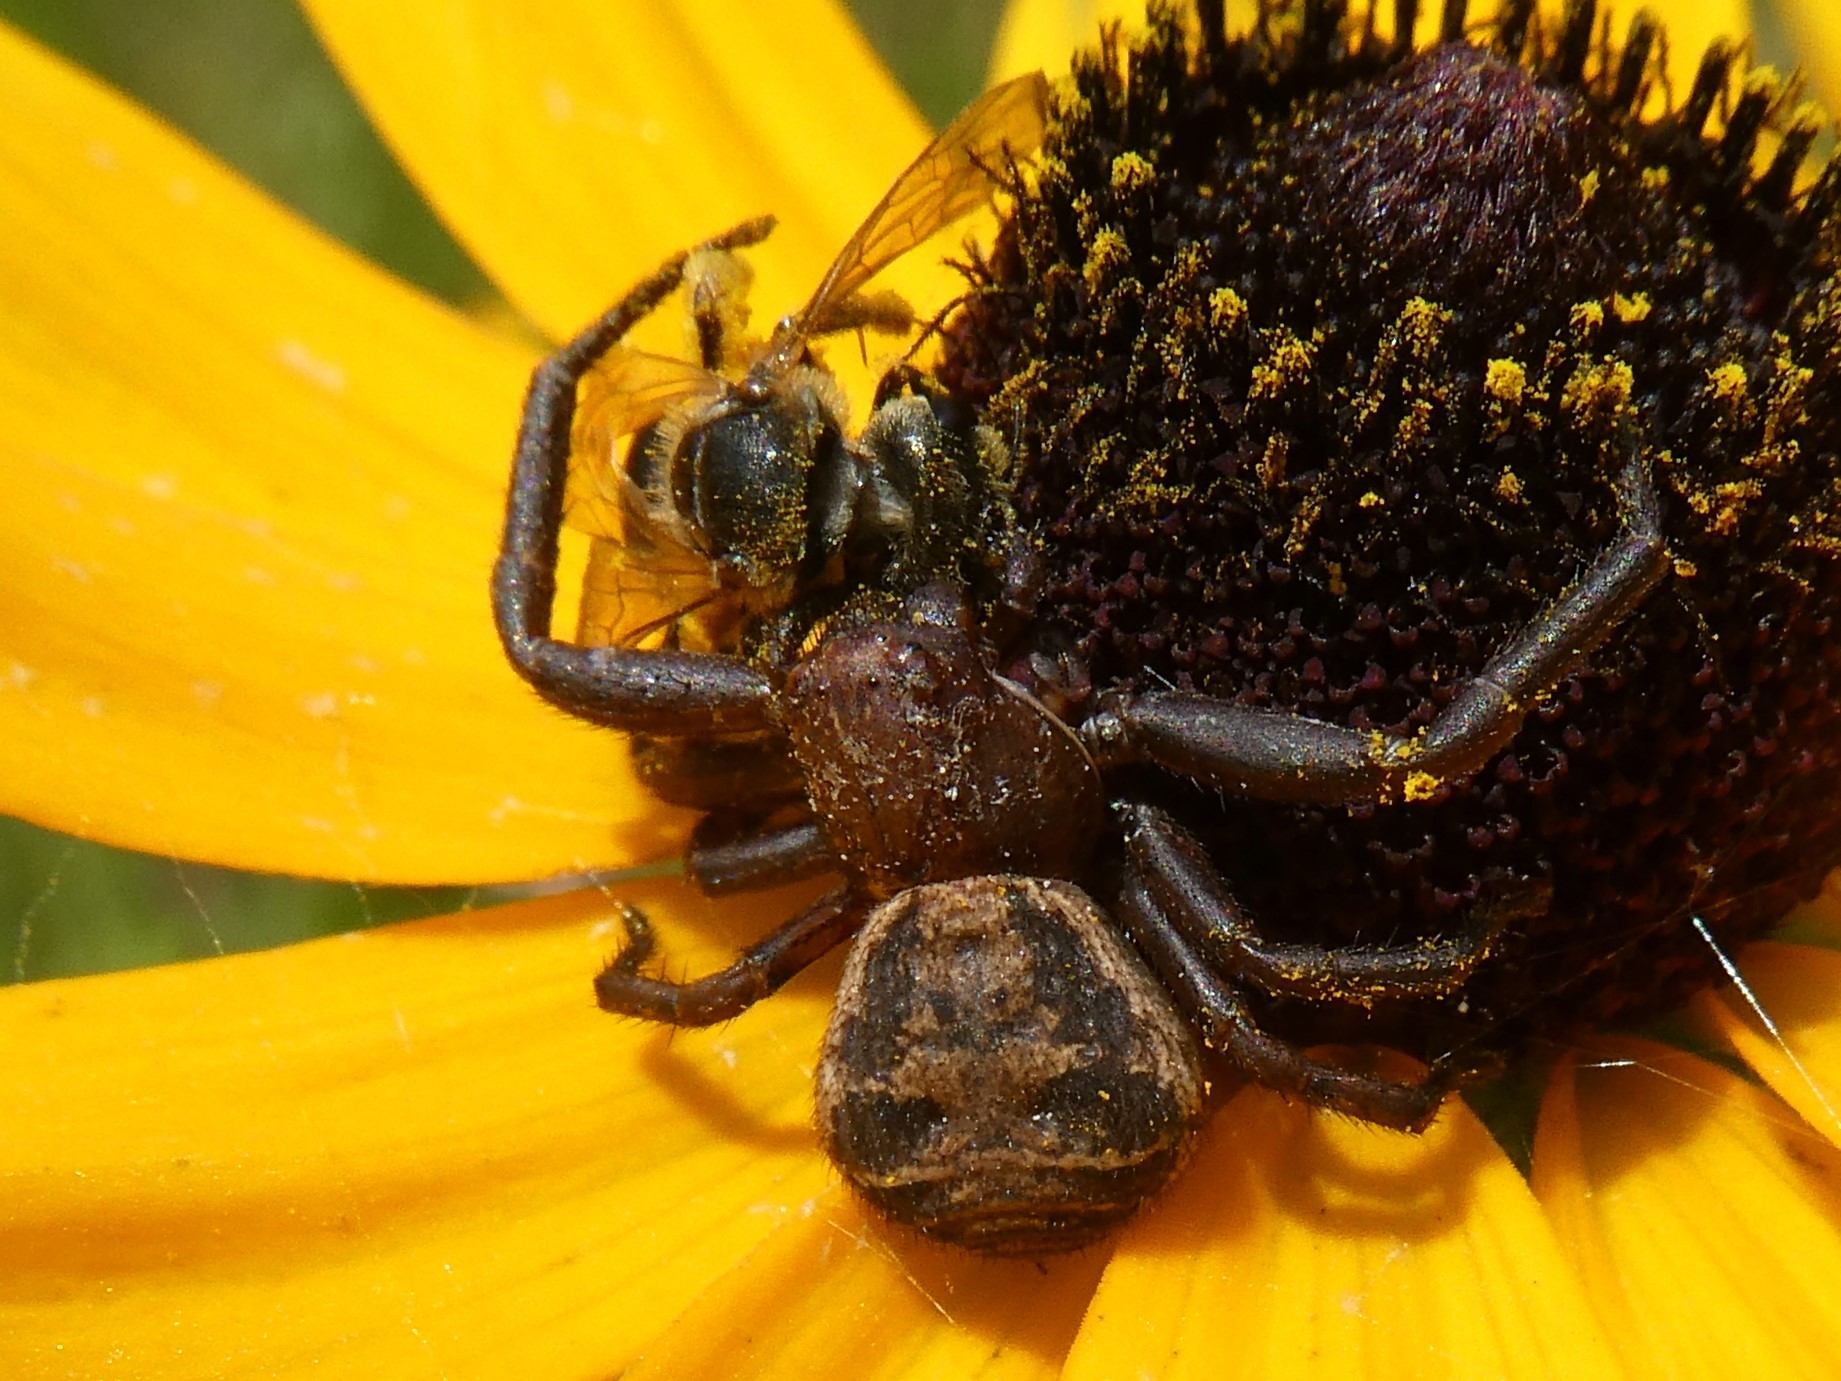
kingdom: Animalia
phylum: Arthropoda
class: Insecta
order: Hymenoptera
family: Halictidae
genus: Halictus
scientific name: Halictus ligatus
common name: Ligated furrow bee
